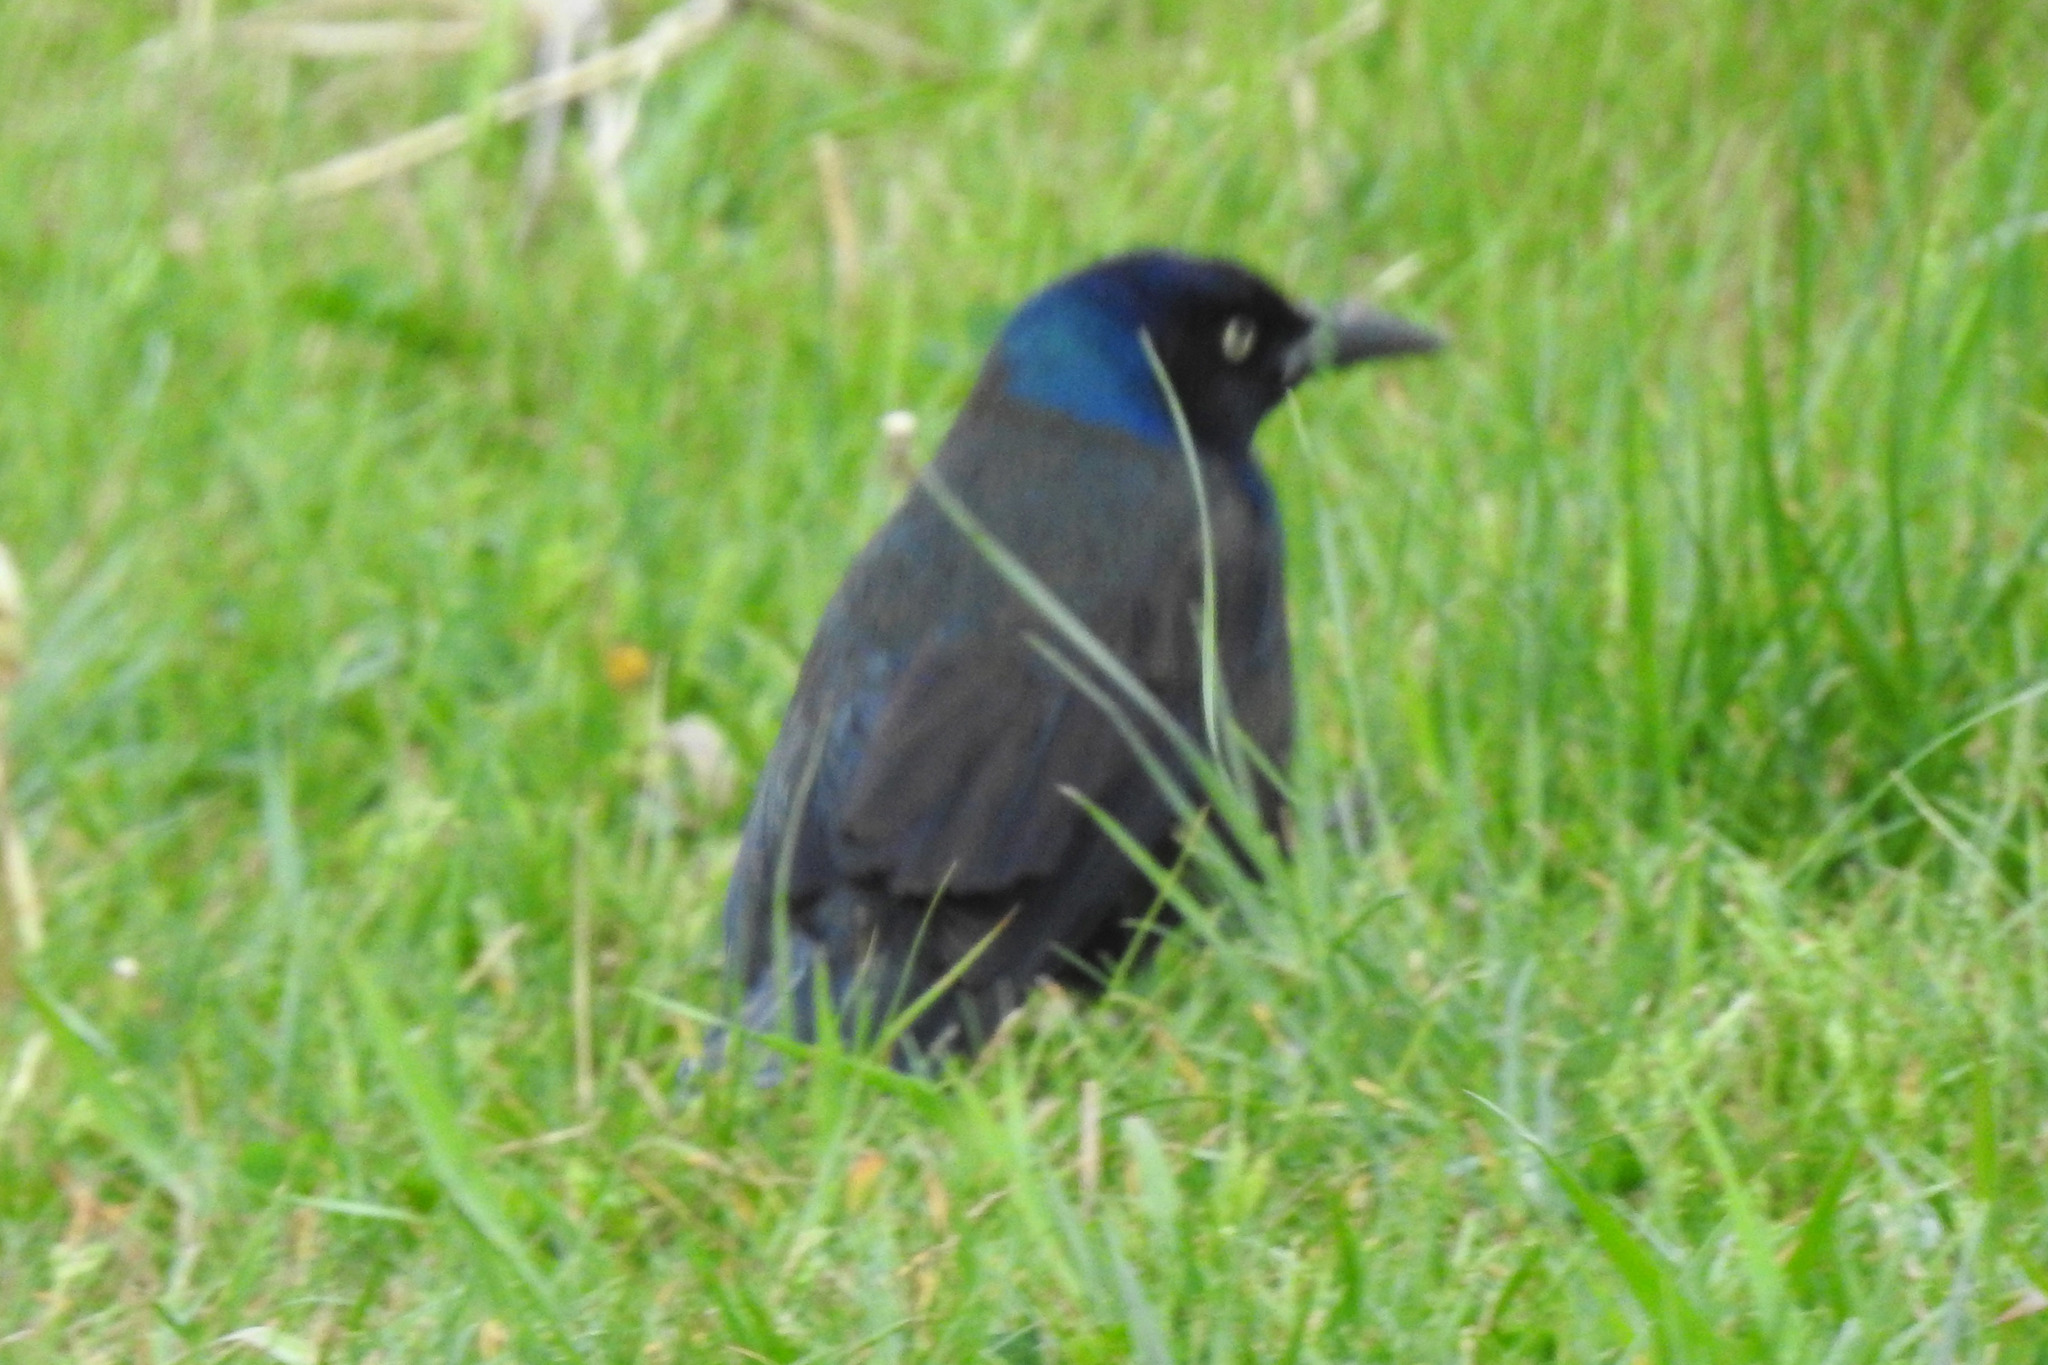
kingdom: Animalia
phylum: Chordata
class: Aves
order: Passeriformes
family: Icteridae
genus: Quiscalus
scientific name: Quiscalus quiscula
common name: Common grackle
